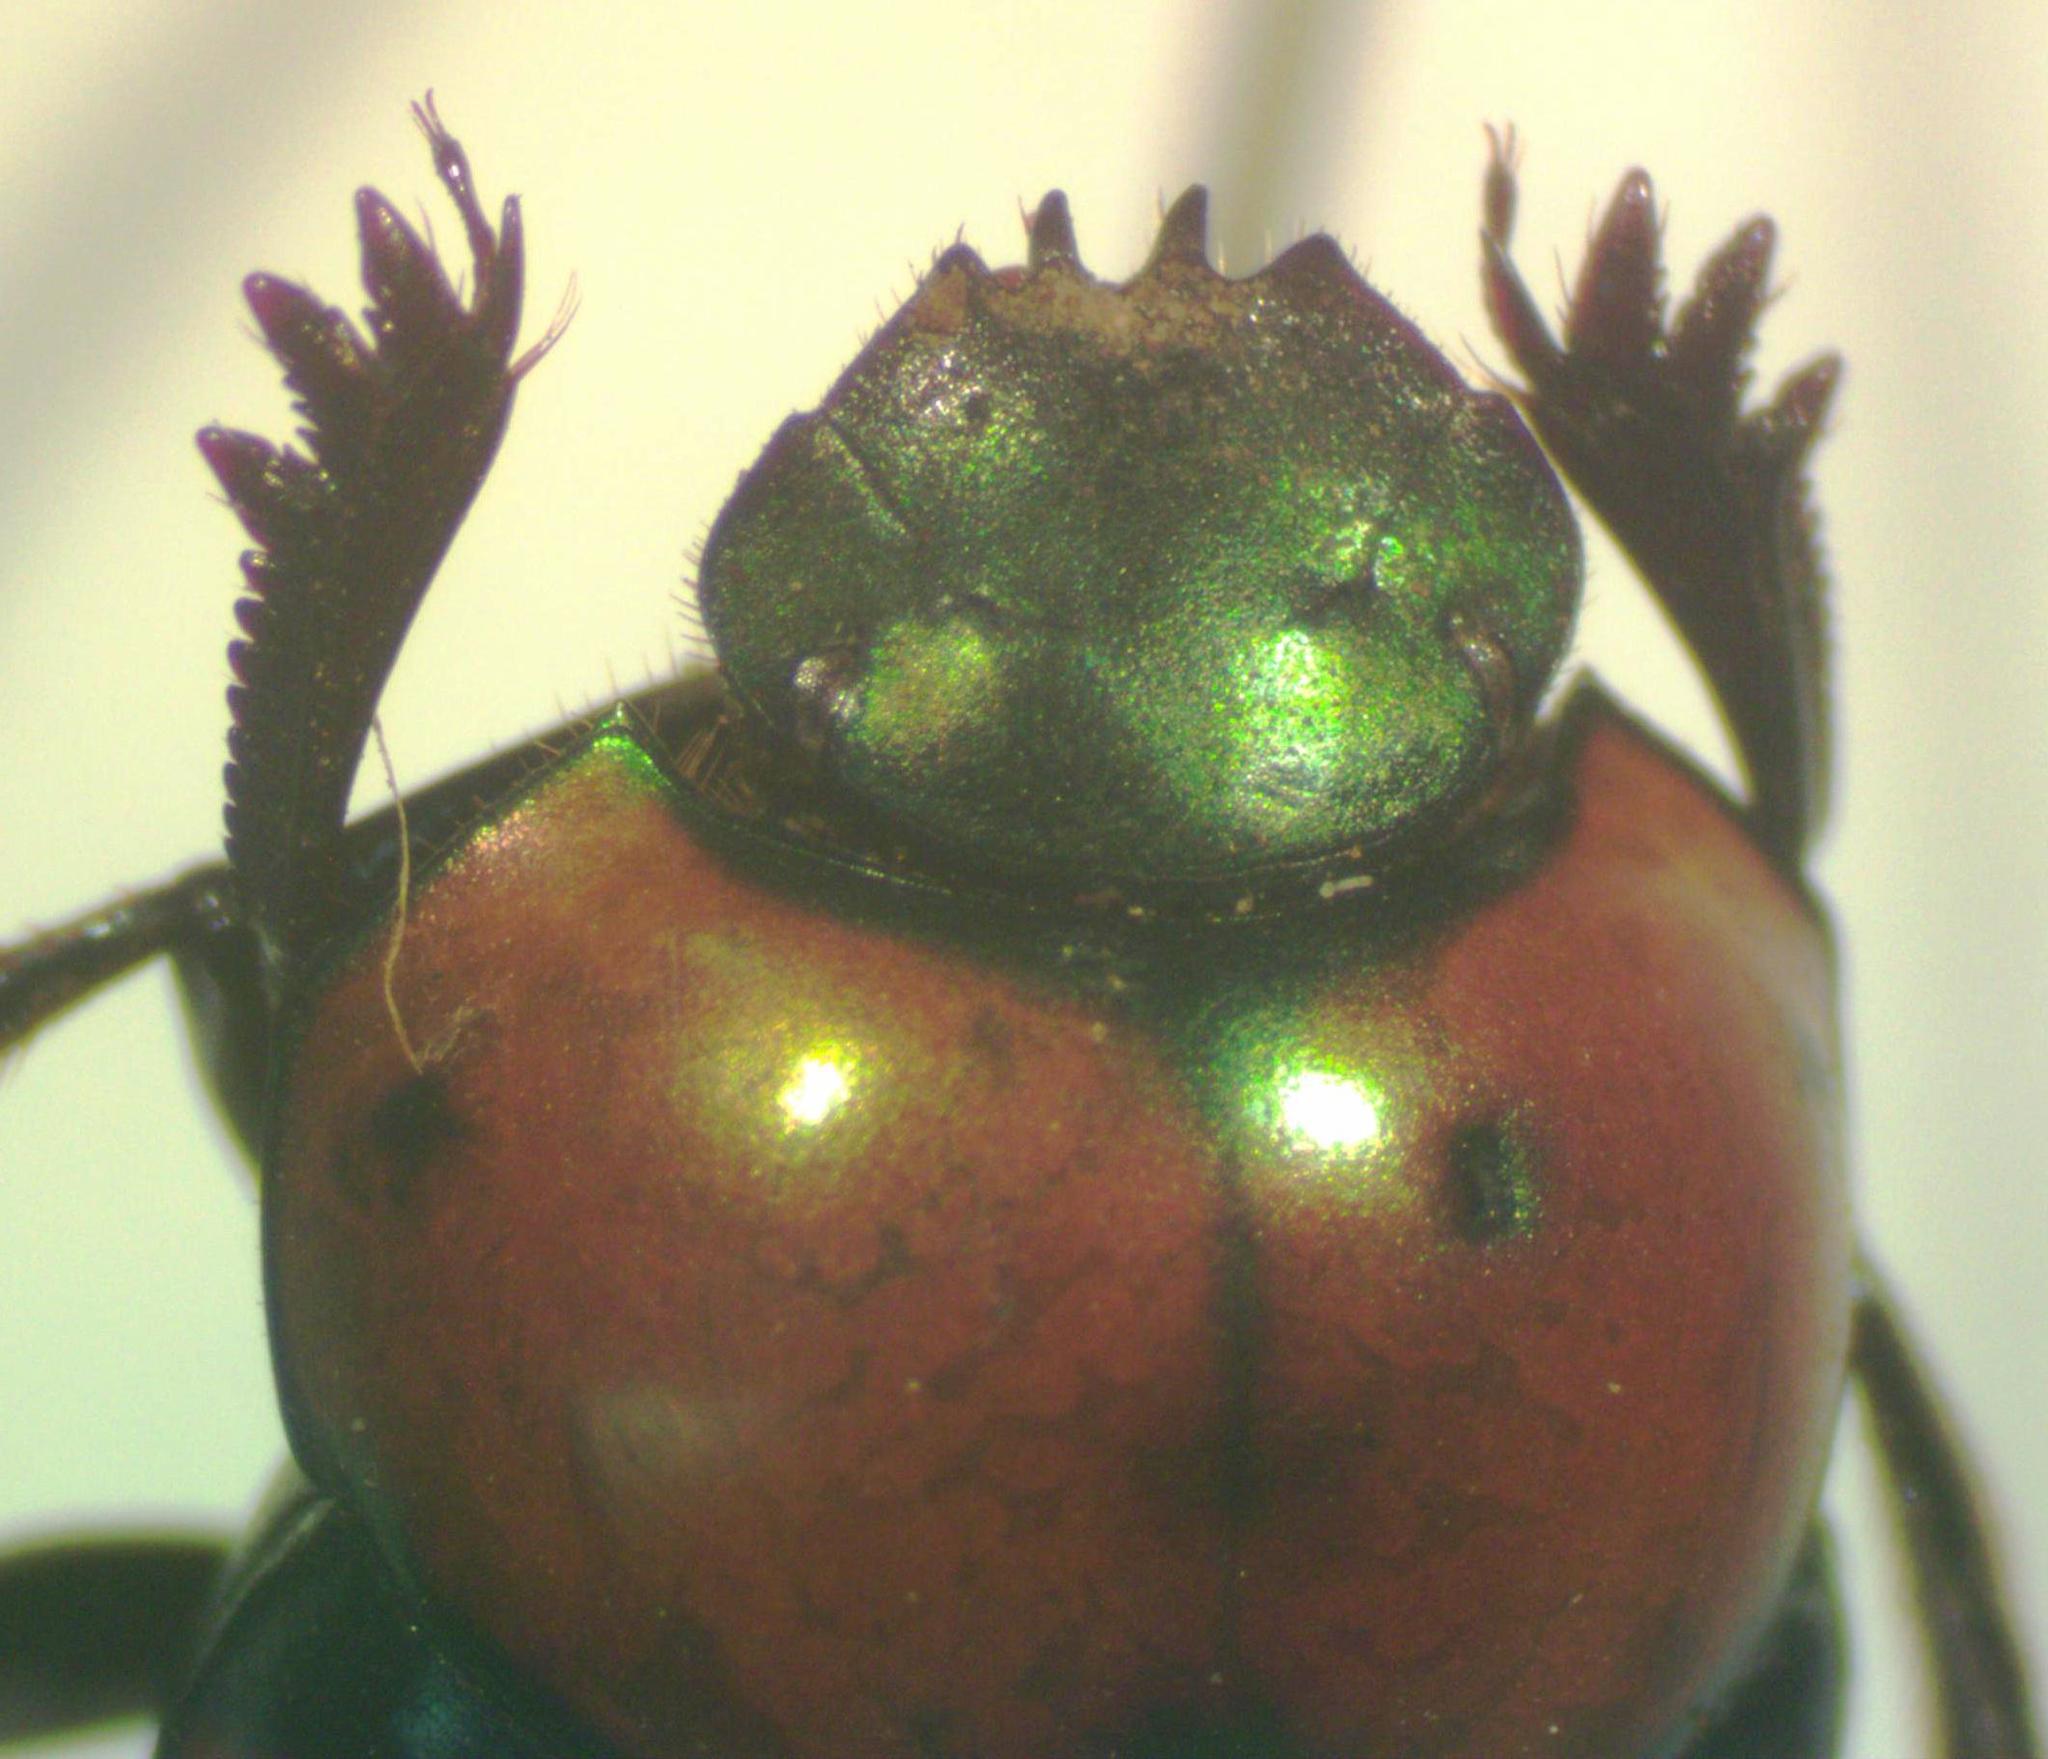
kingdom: Animalia
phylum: Arthropoda
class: Insecta
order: Coleoptera
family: Scarabaeidae
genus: Canthon
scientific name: Canthon cyanellus
